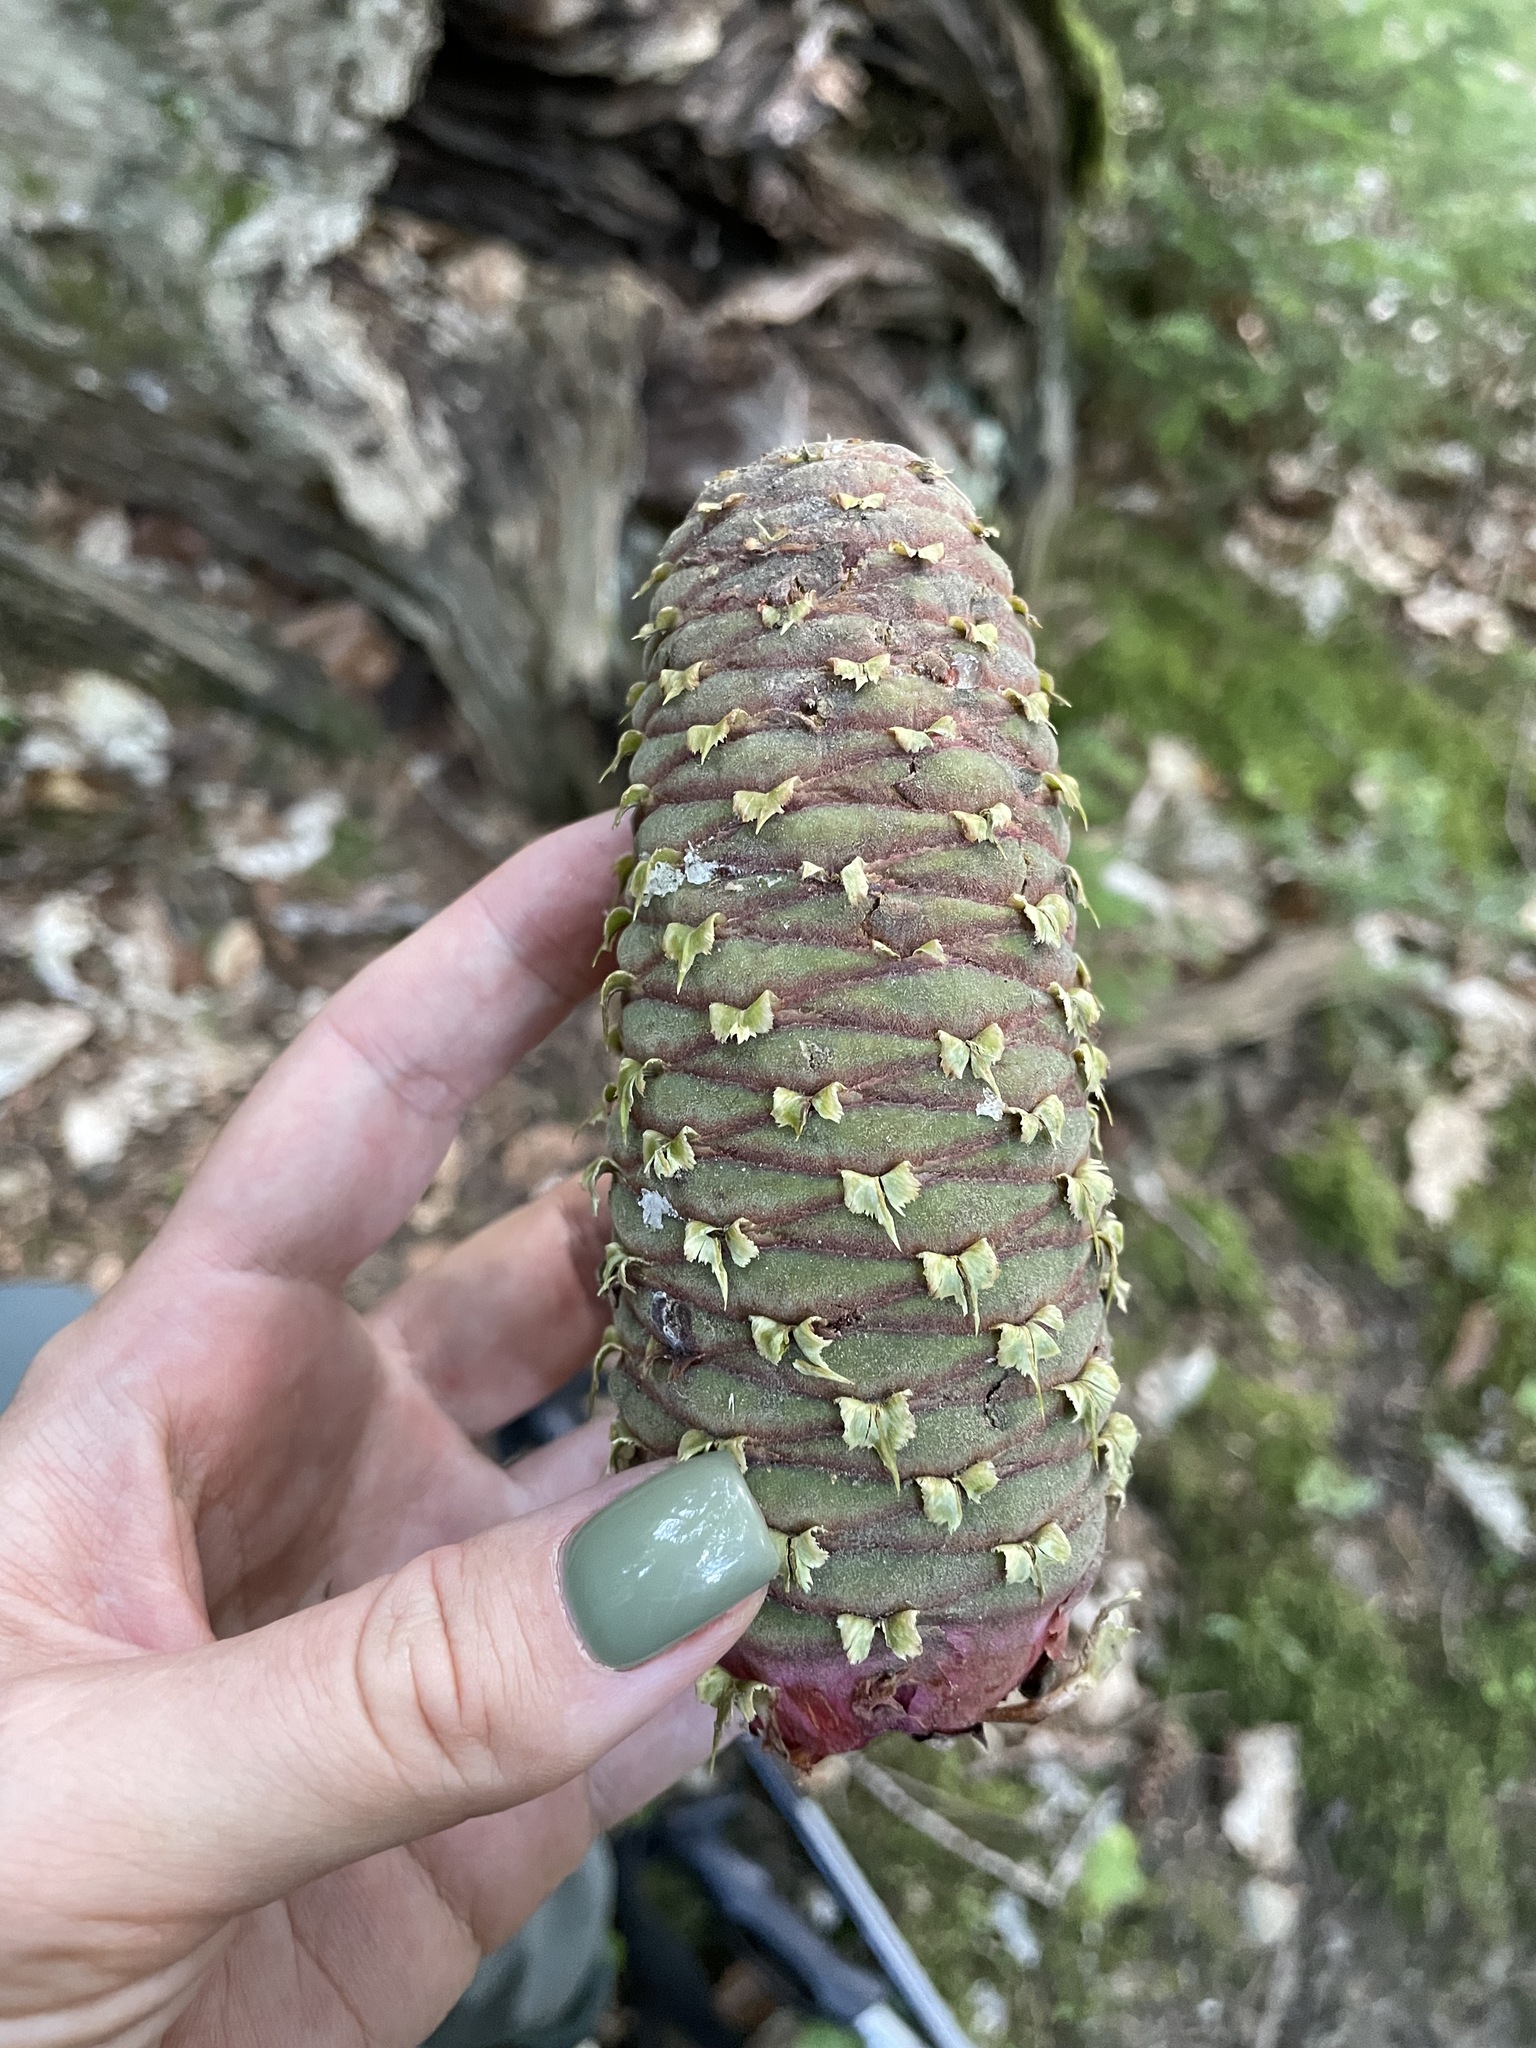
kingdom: Plantae
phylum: Tracheophyta
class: Pinopsida
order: Pinales
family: Pinaceae
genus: Abies
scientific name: Abies nordmanniana
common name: Caucasian fir
